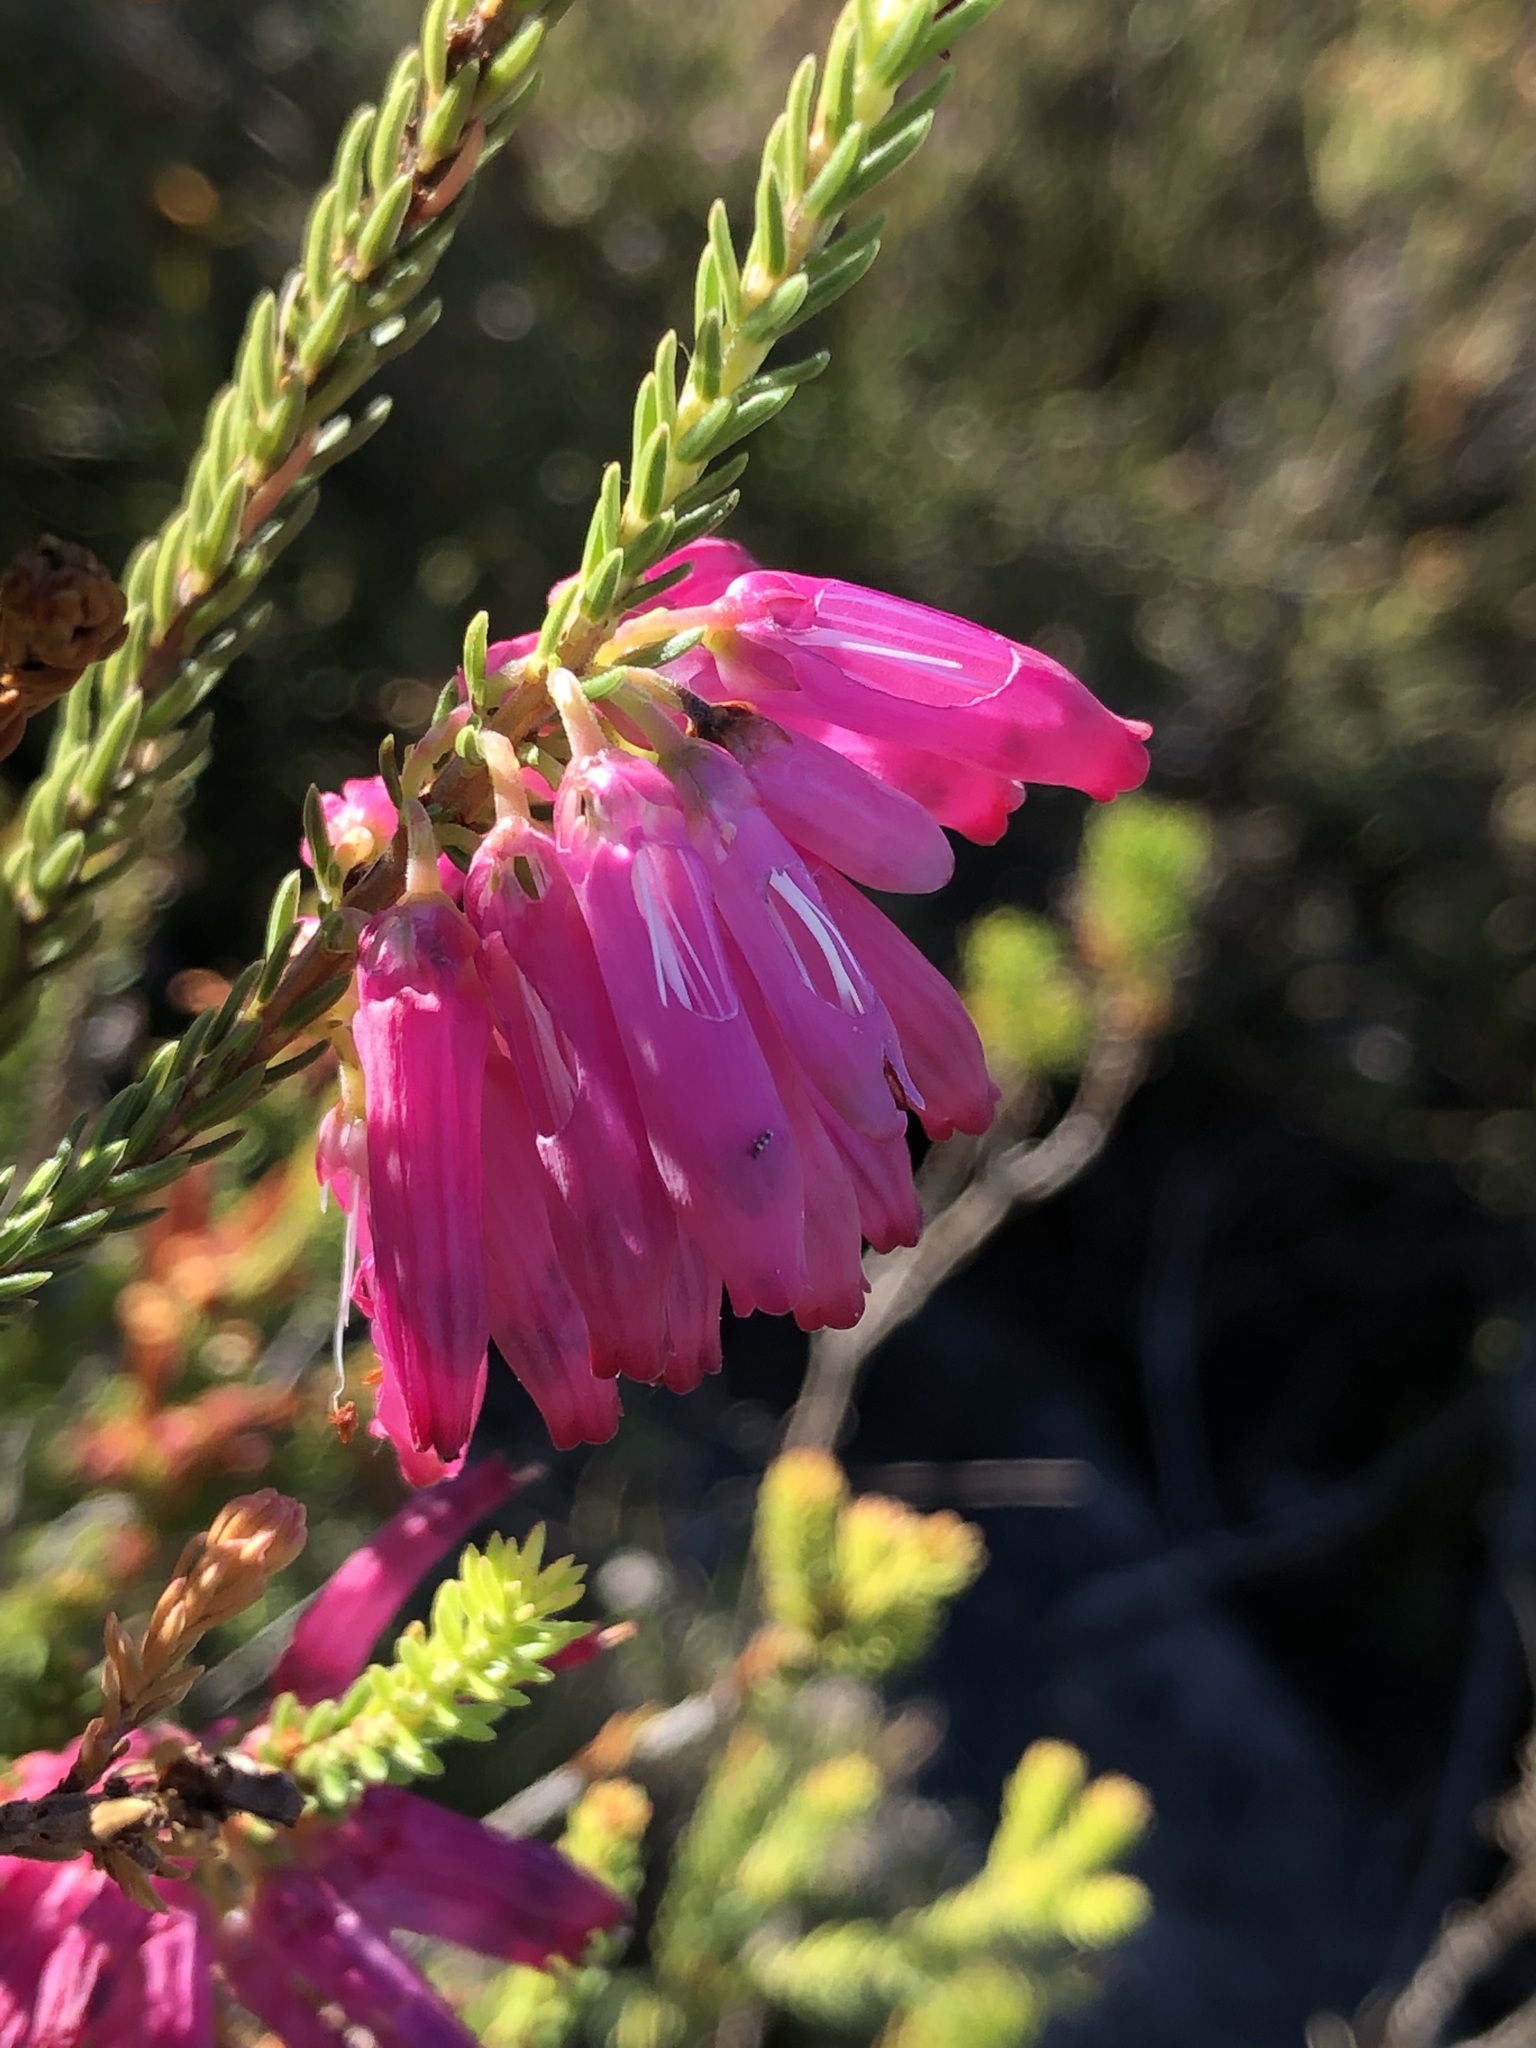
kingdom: Plantae
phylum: Tracheophyta
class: Magnoliopsida
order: Ericales
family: Ericaceae
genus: Erica
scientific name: Erica mammosa
